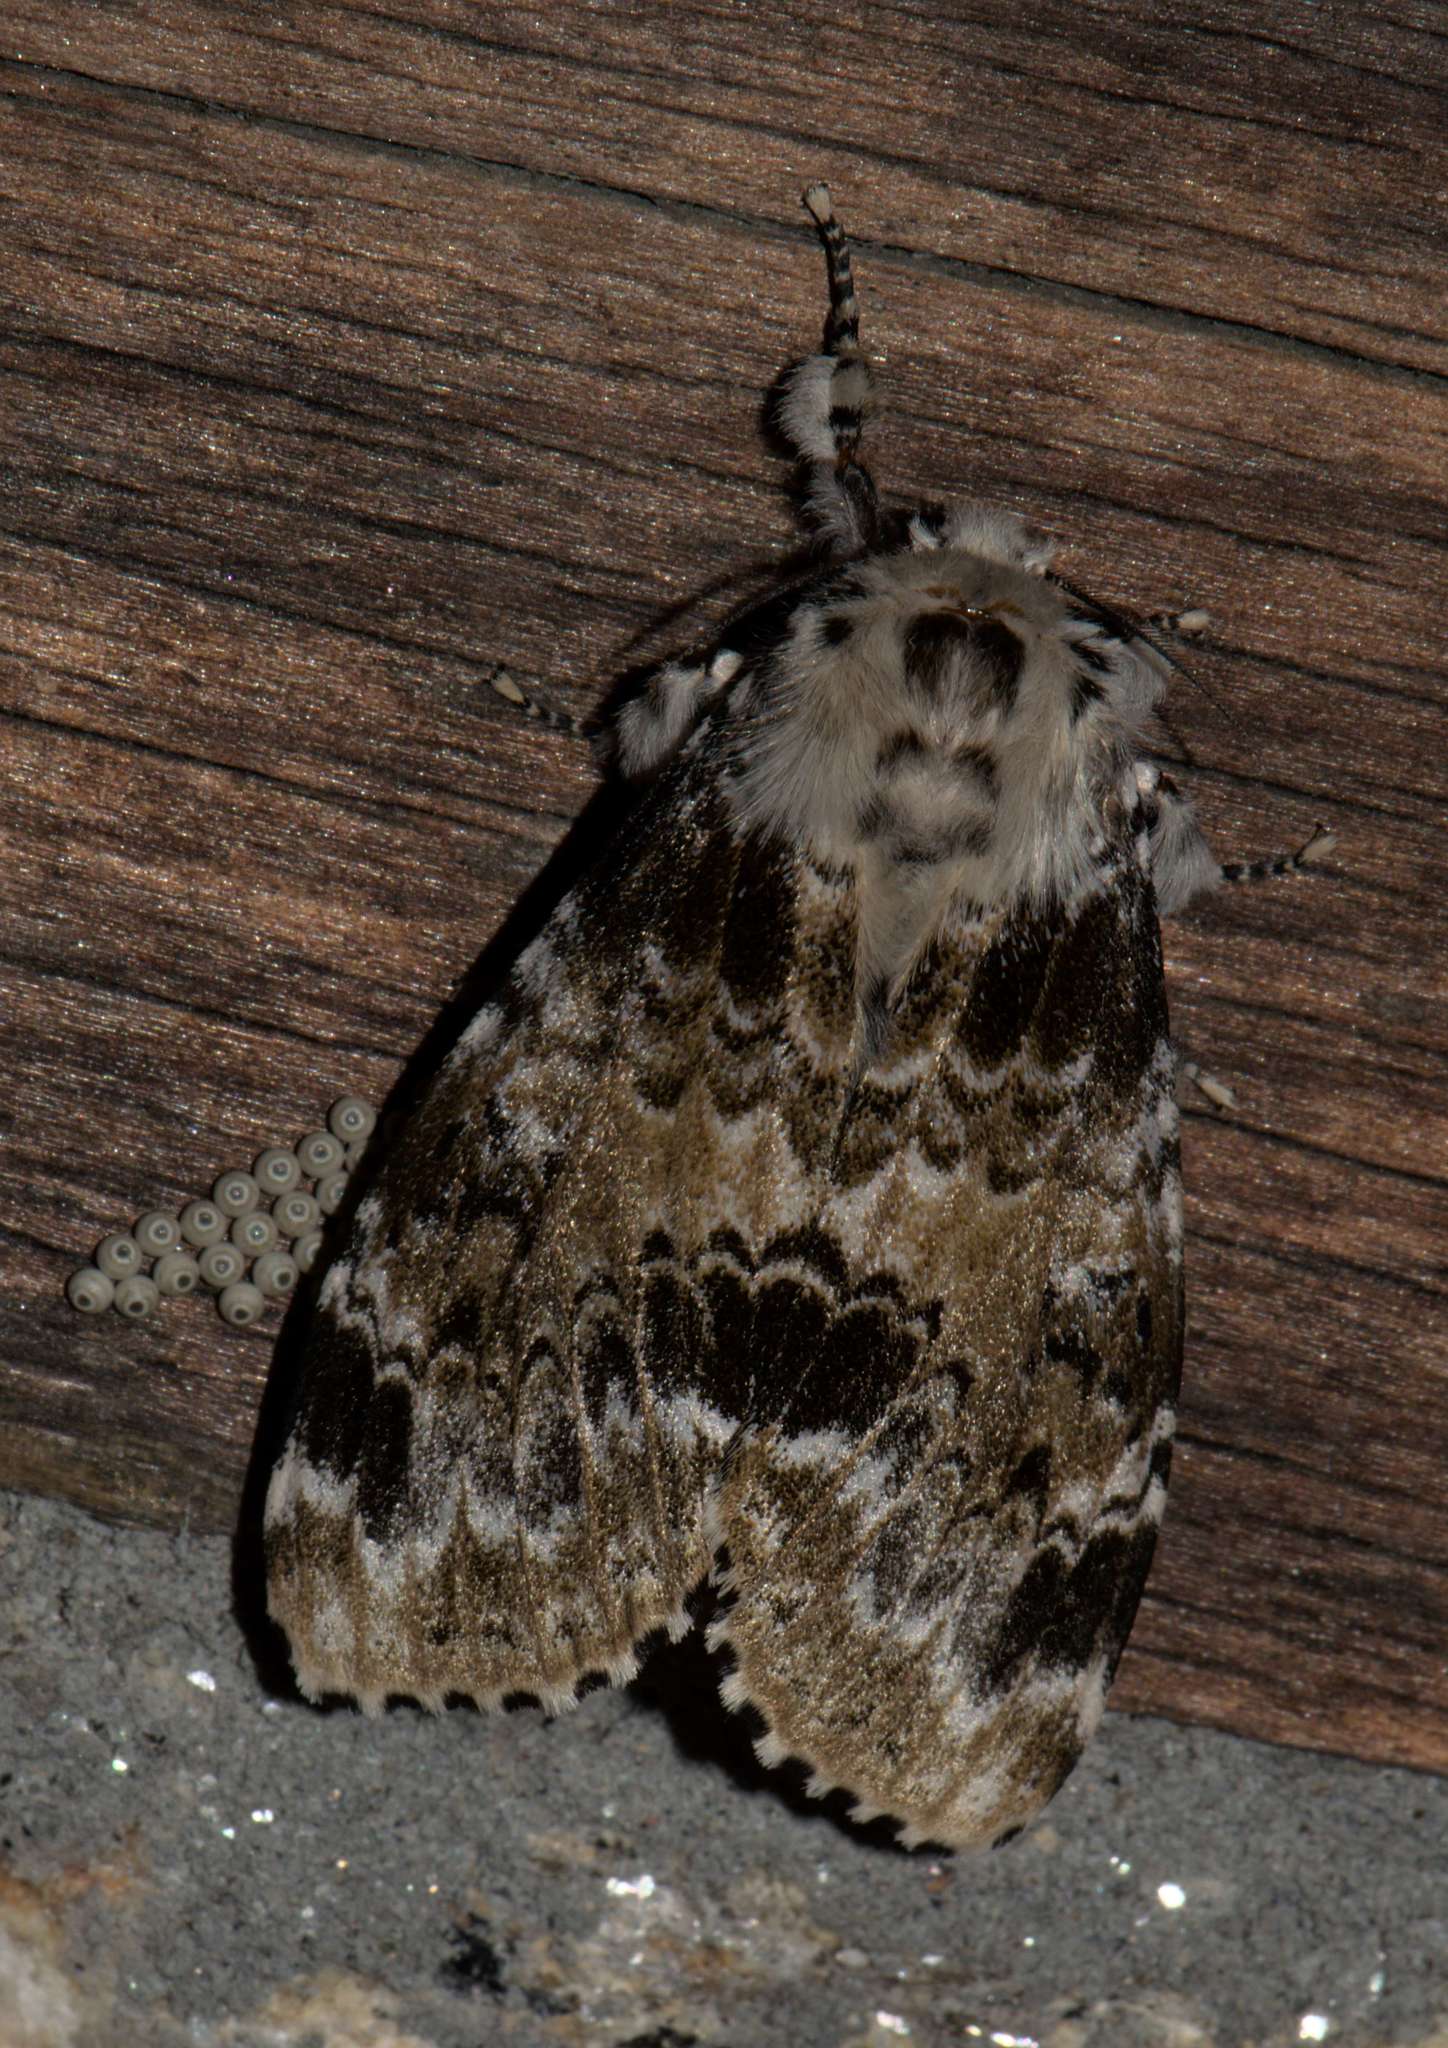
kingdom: Animalia
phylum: Arthropoda
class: Insecta
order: Lepidoptera
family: Erebidae
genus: Calliteara
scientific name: Calliteara complicata
